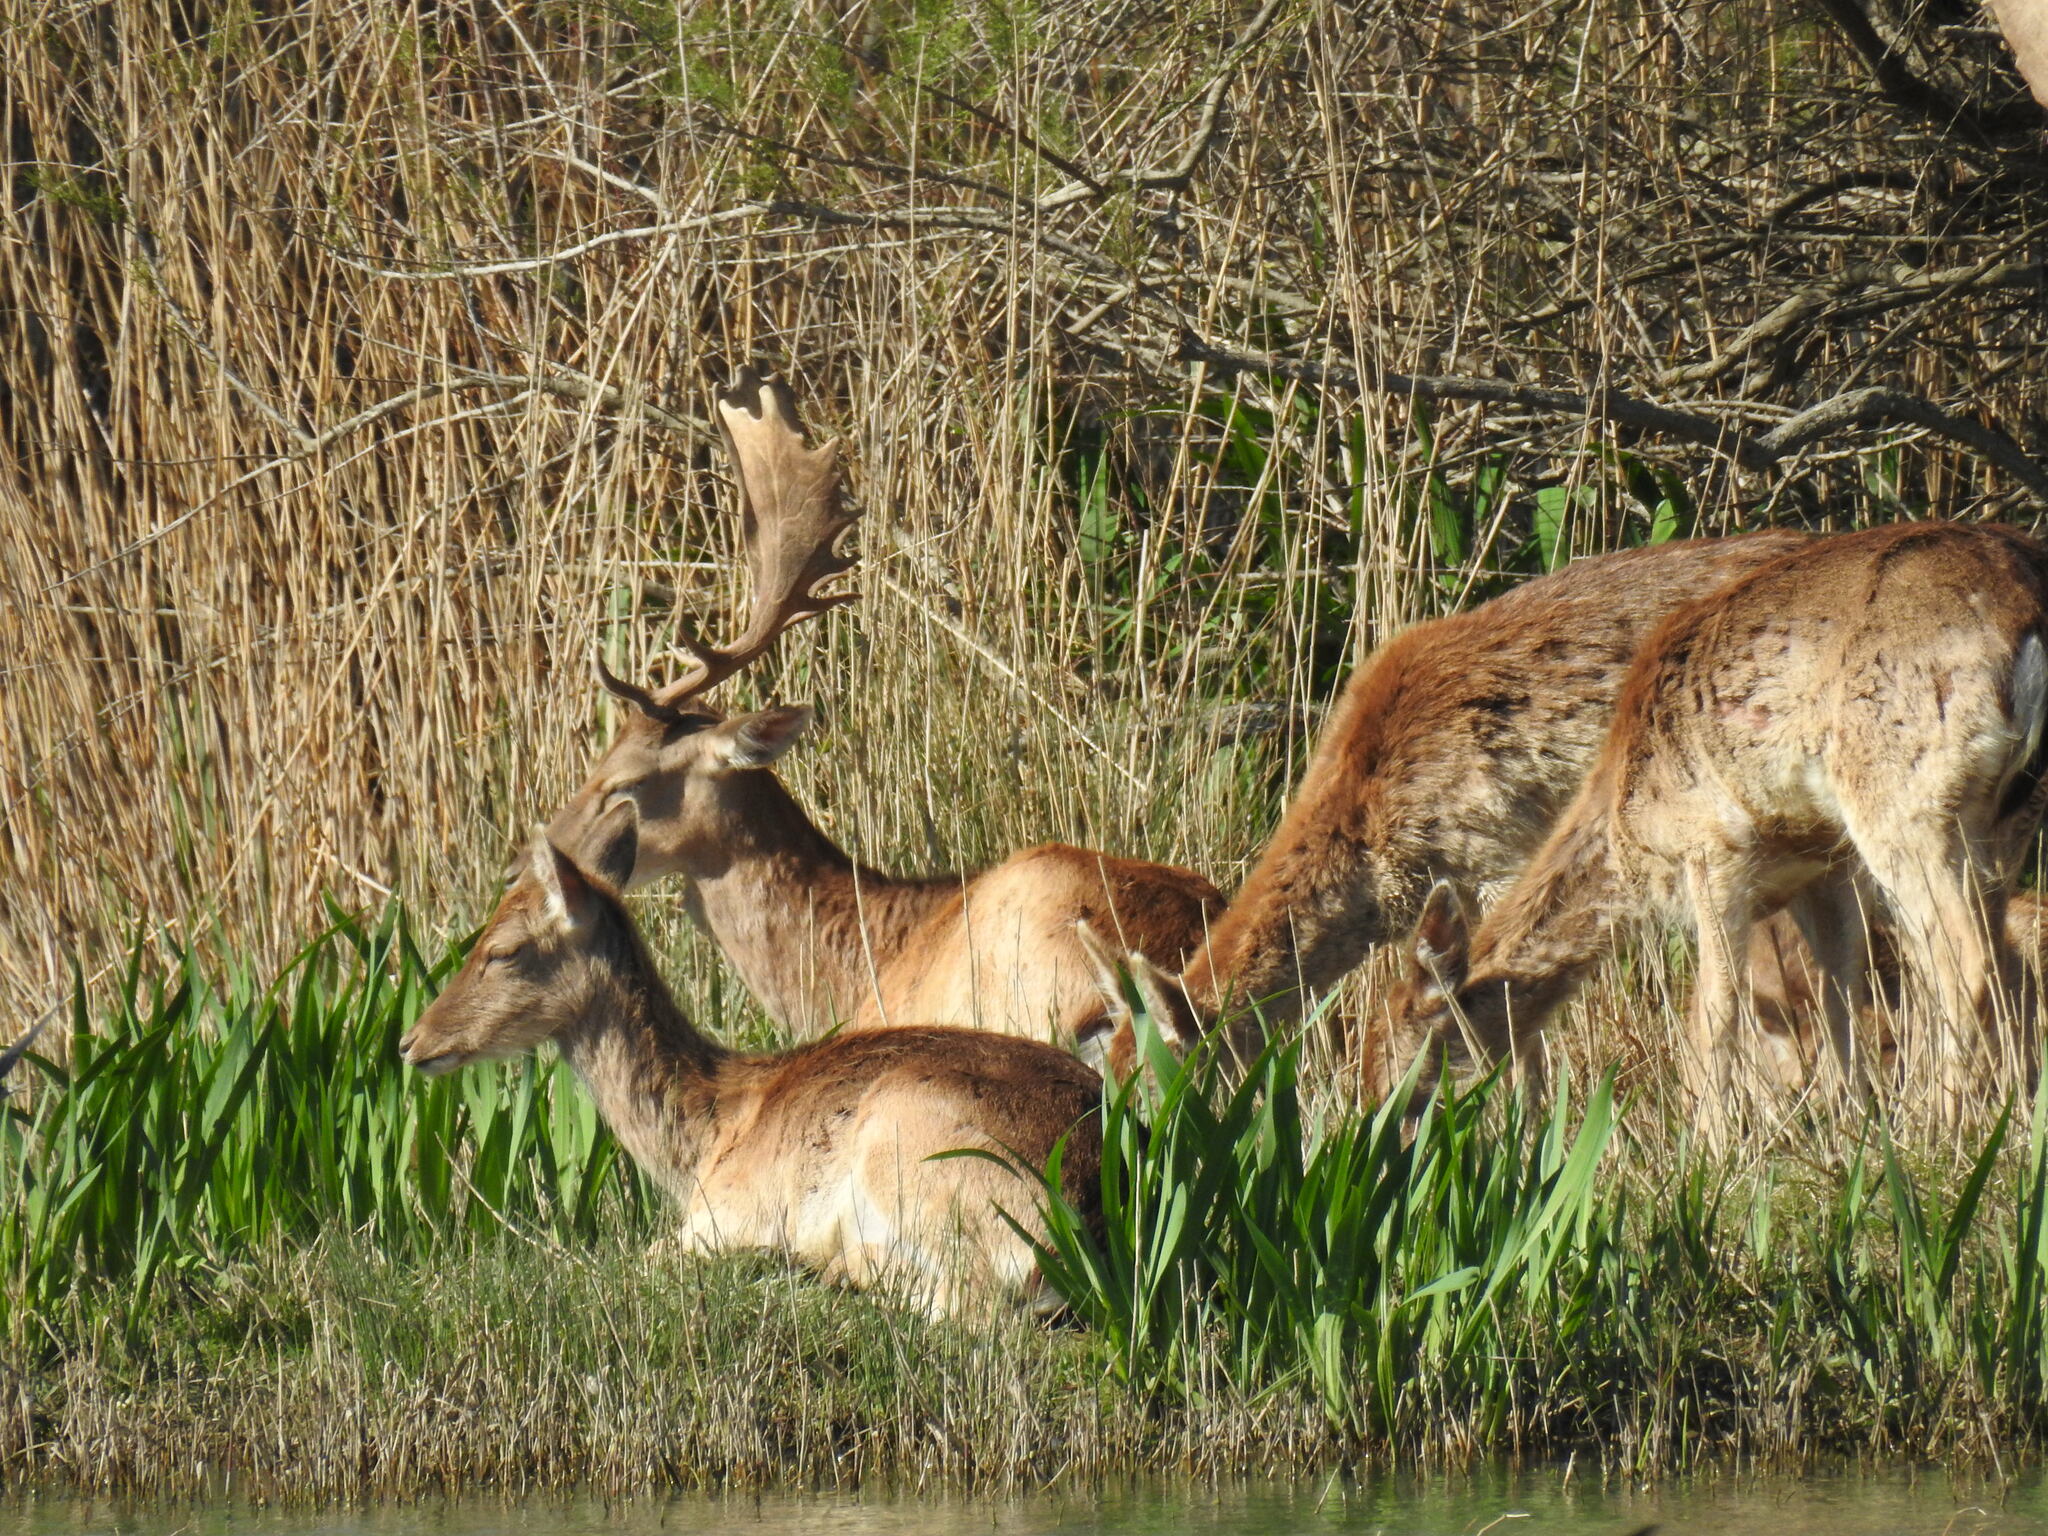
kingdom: Animalia
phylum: Chordata
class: Mammalia
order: Artiodactyla
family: Cervidae
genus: Dama
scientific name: Dama dama
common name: Fallow deer
